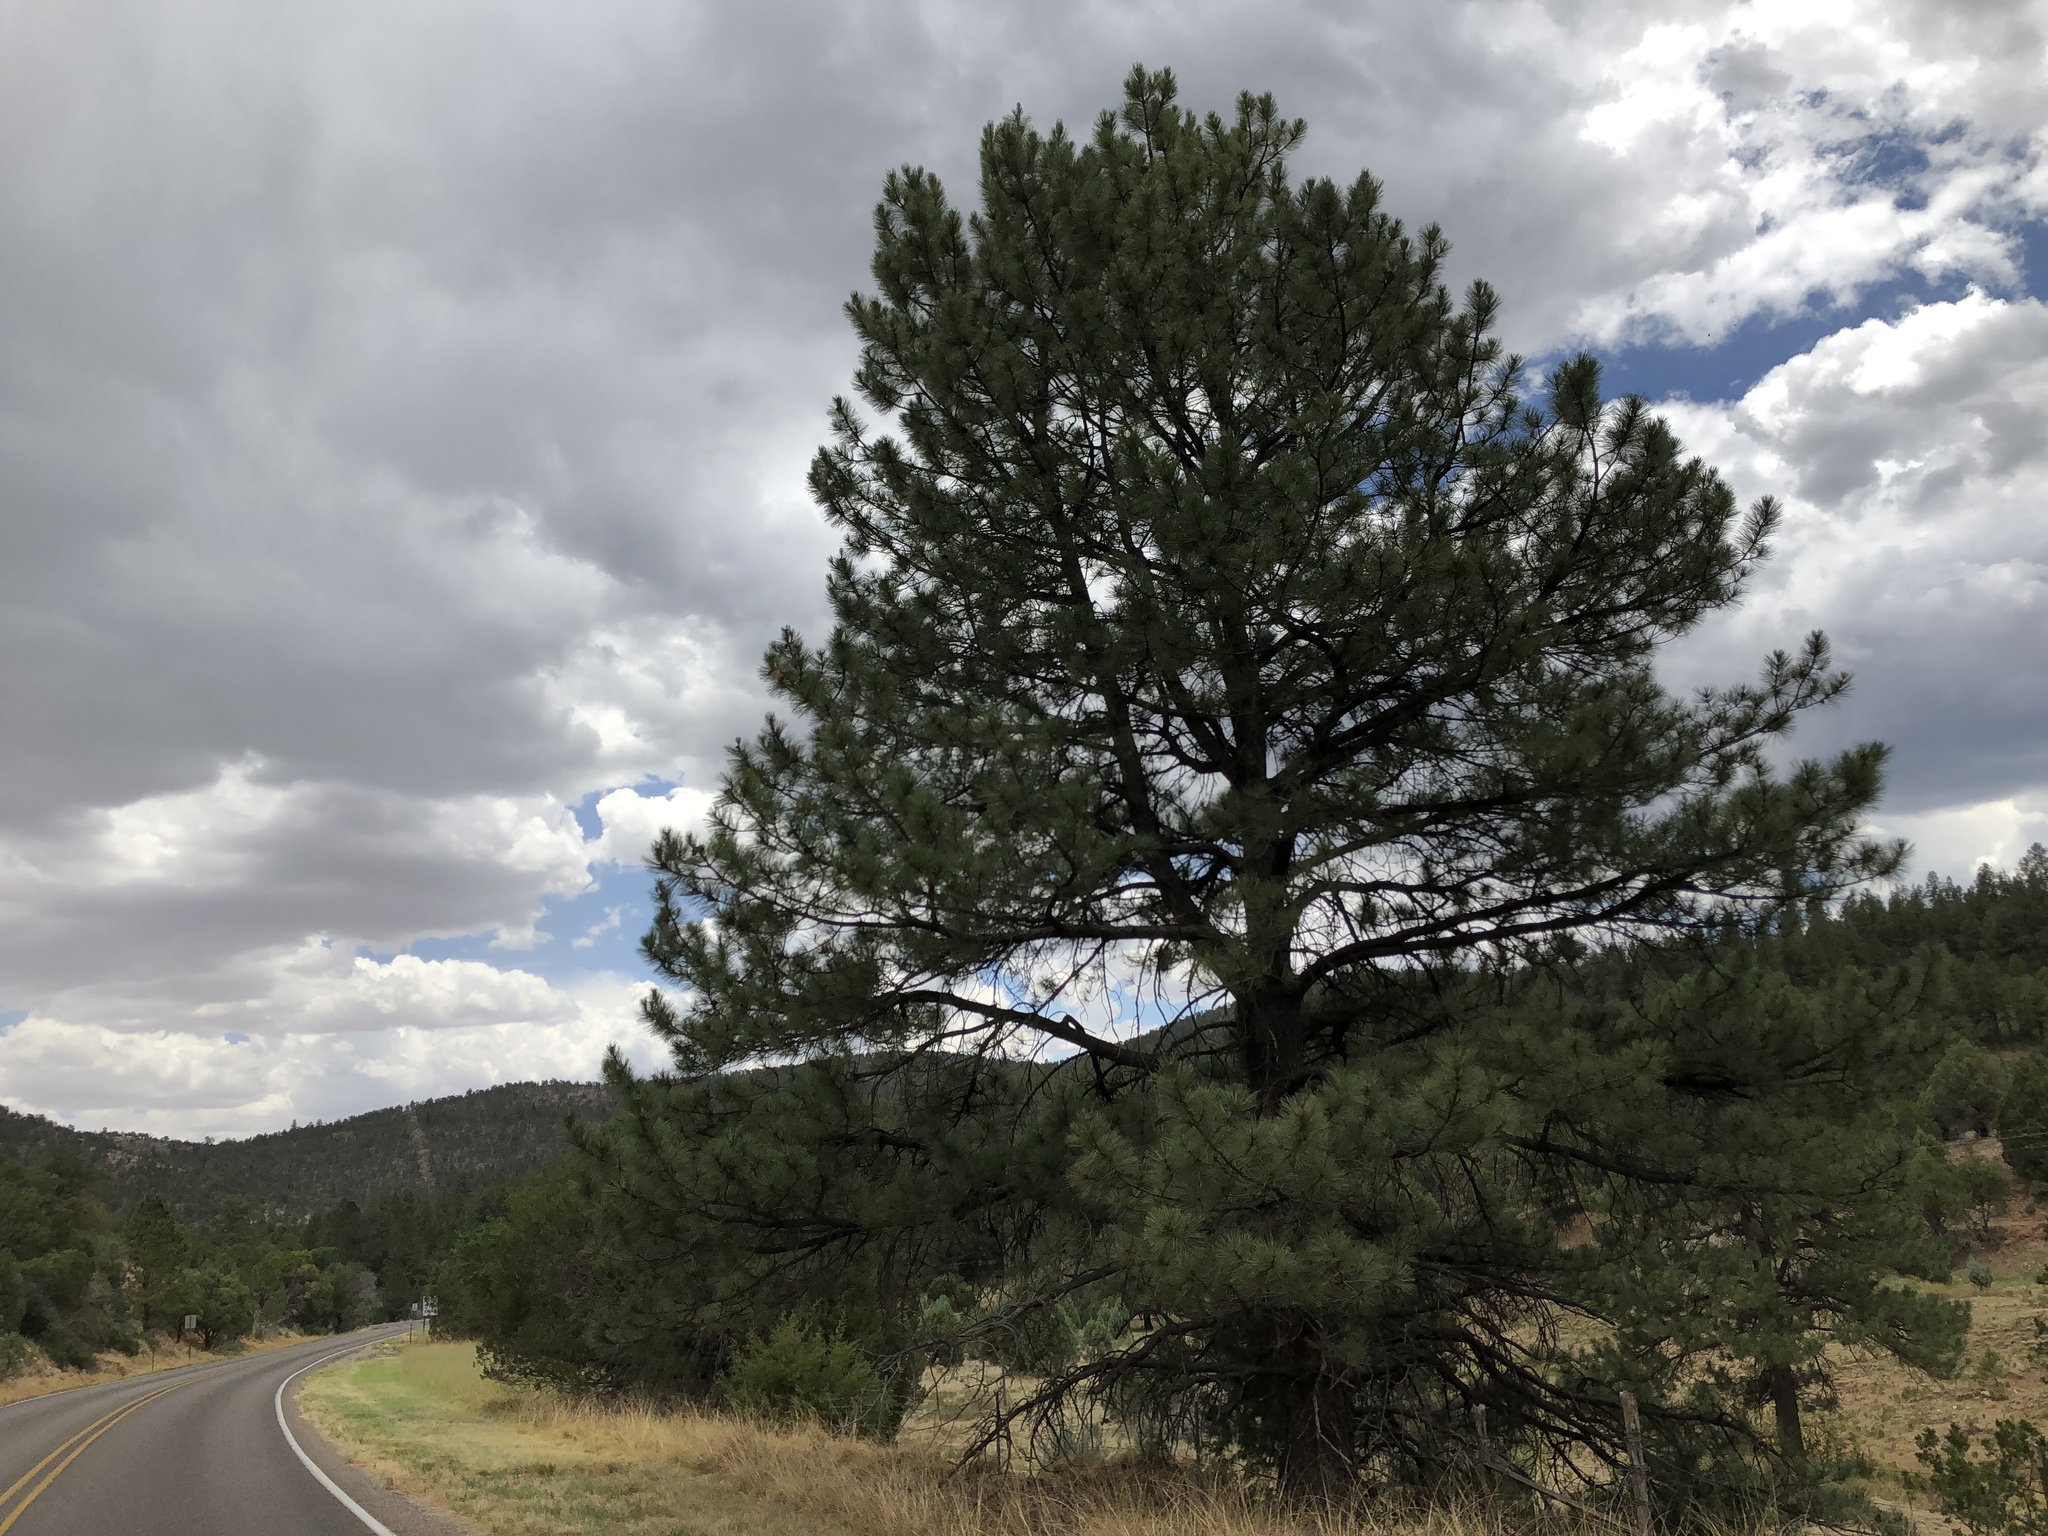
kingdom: Plantae
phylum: Tracheophyta
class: Pinopsida
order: Pinales
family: Pinaceae
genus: Pinus
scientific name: Pinus ponderosa
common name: Western yellow-pine
